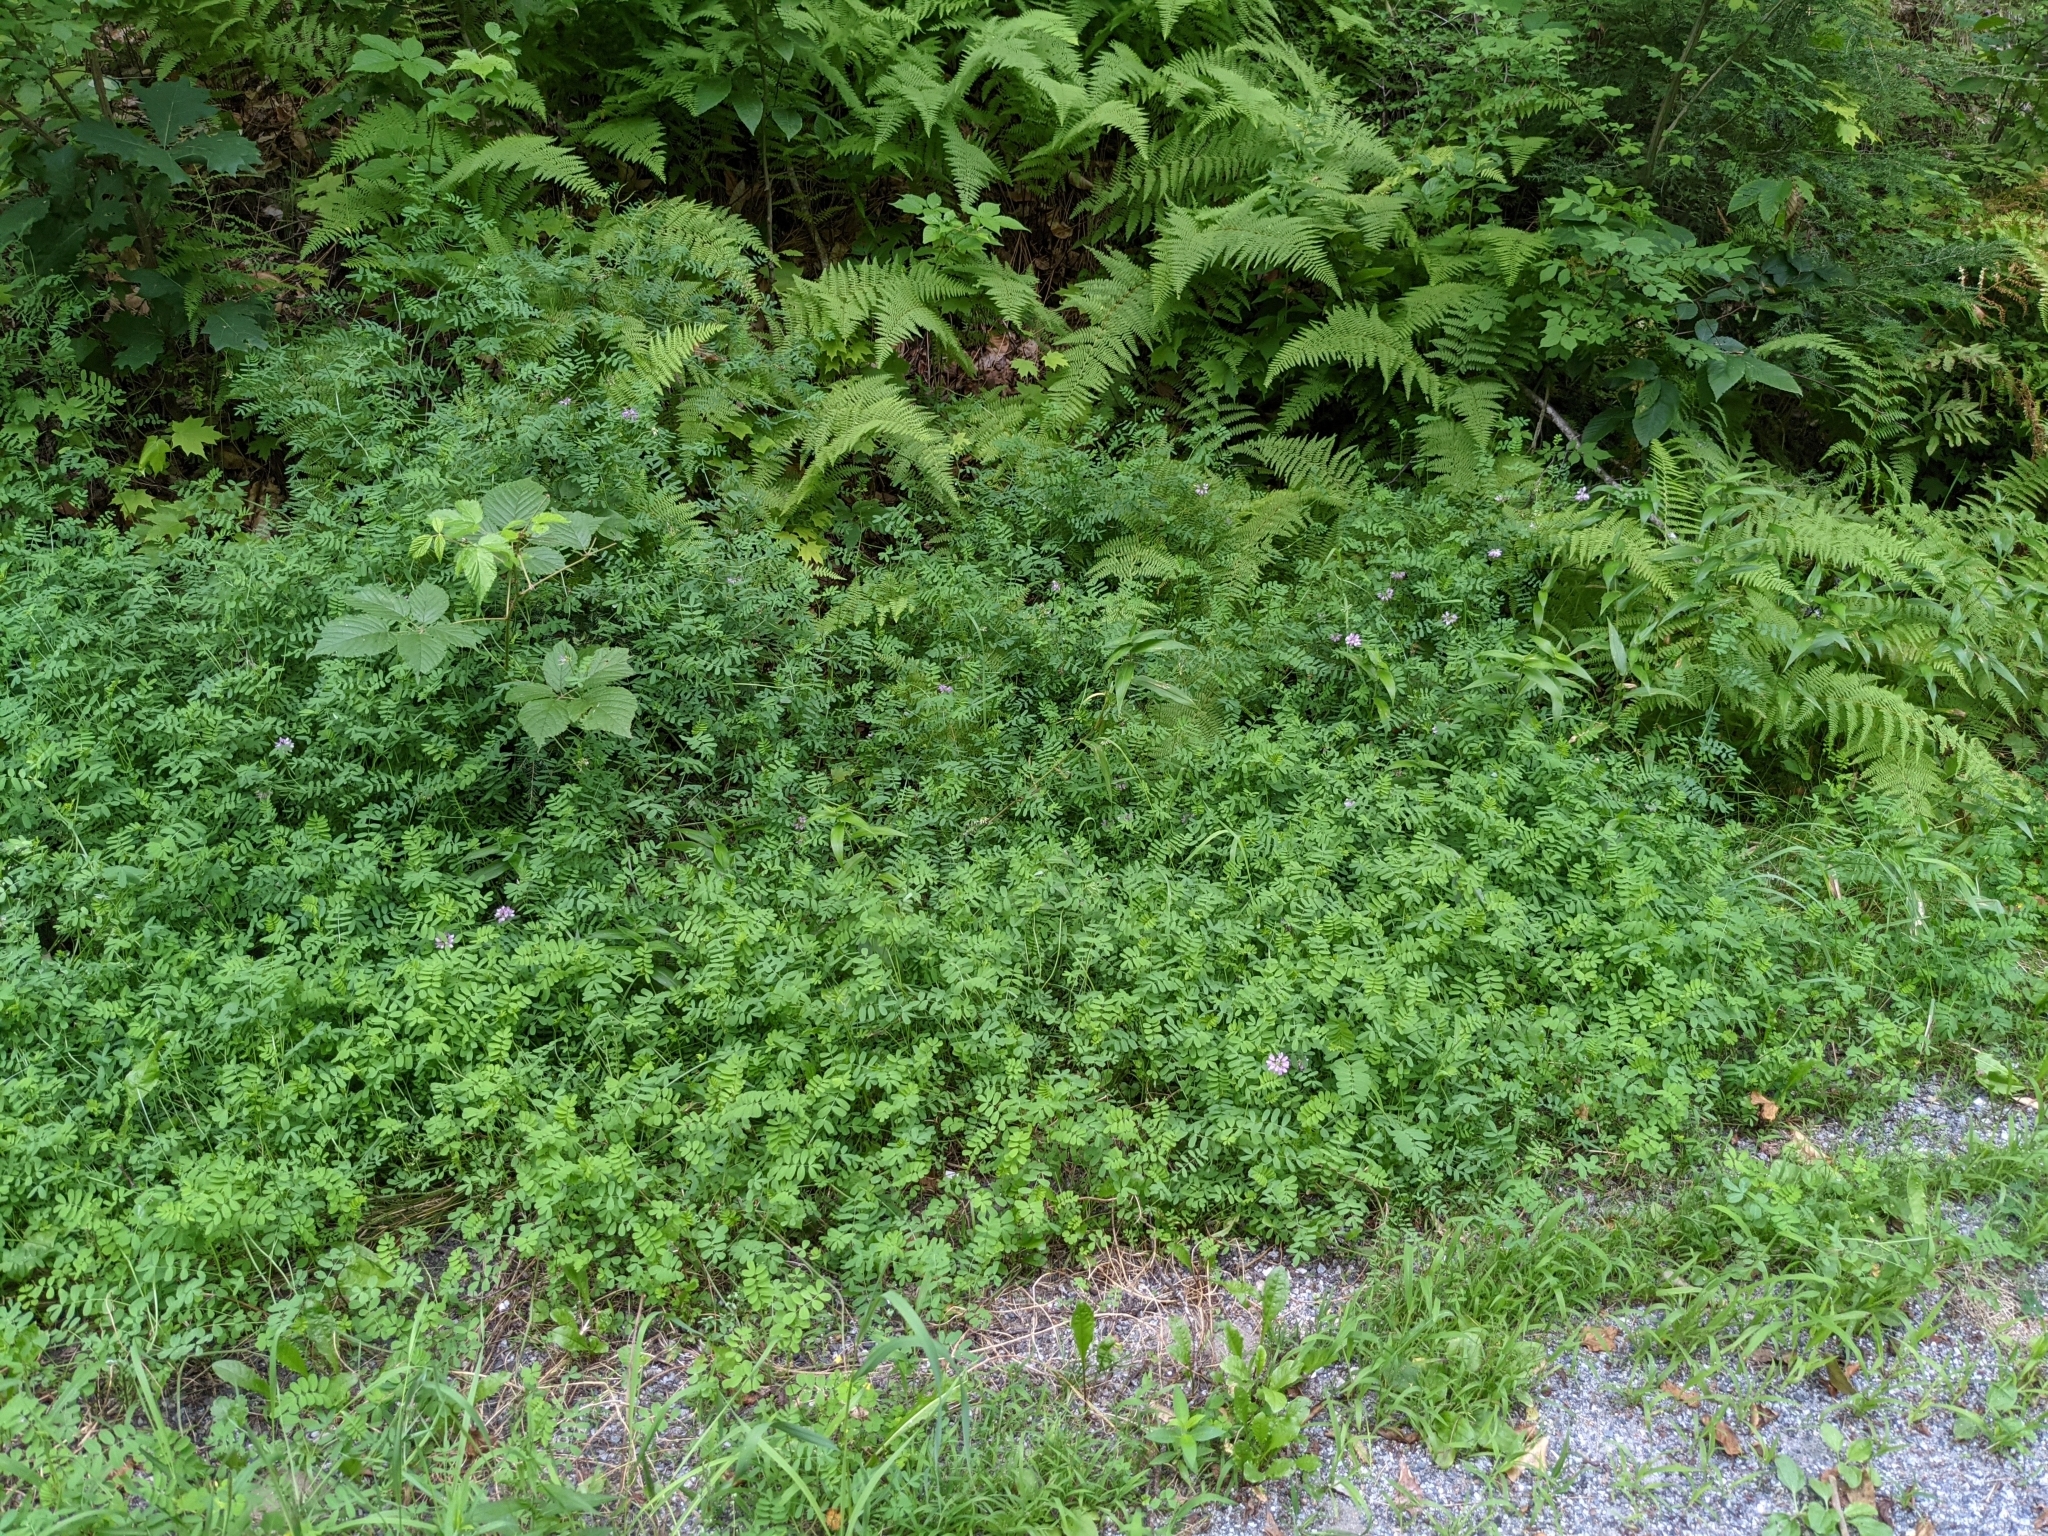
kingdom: Plantae
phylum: Tracheophyta
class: Magnoliopsida
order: Fabales
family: Fabaceae
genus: Coronilla
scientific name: Coronilla varia
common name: Crownvetch
